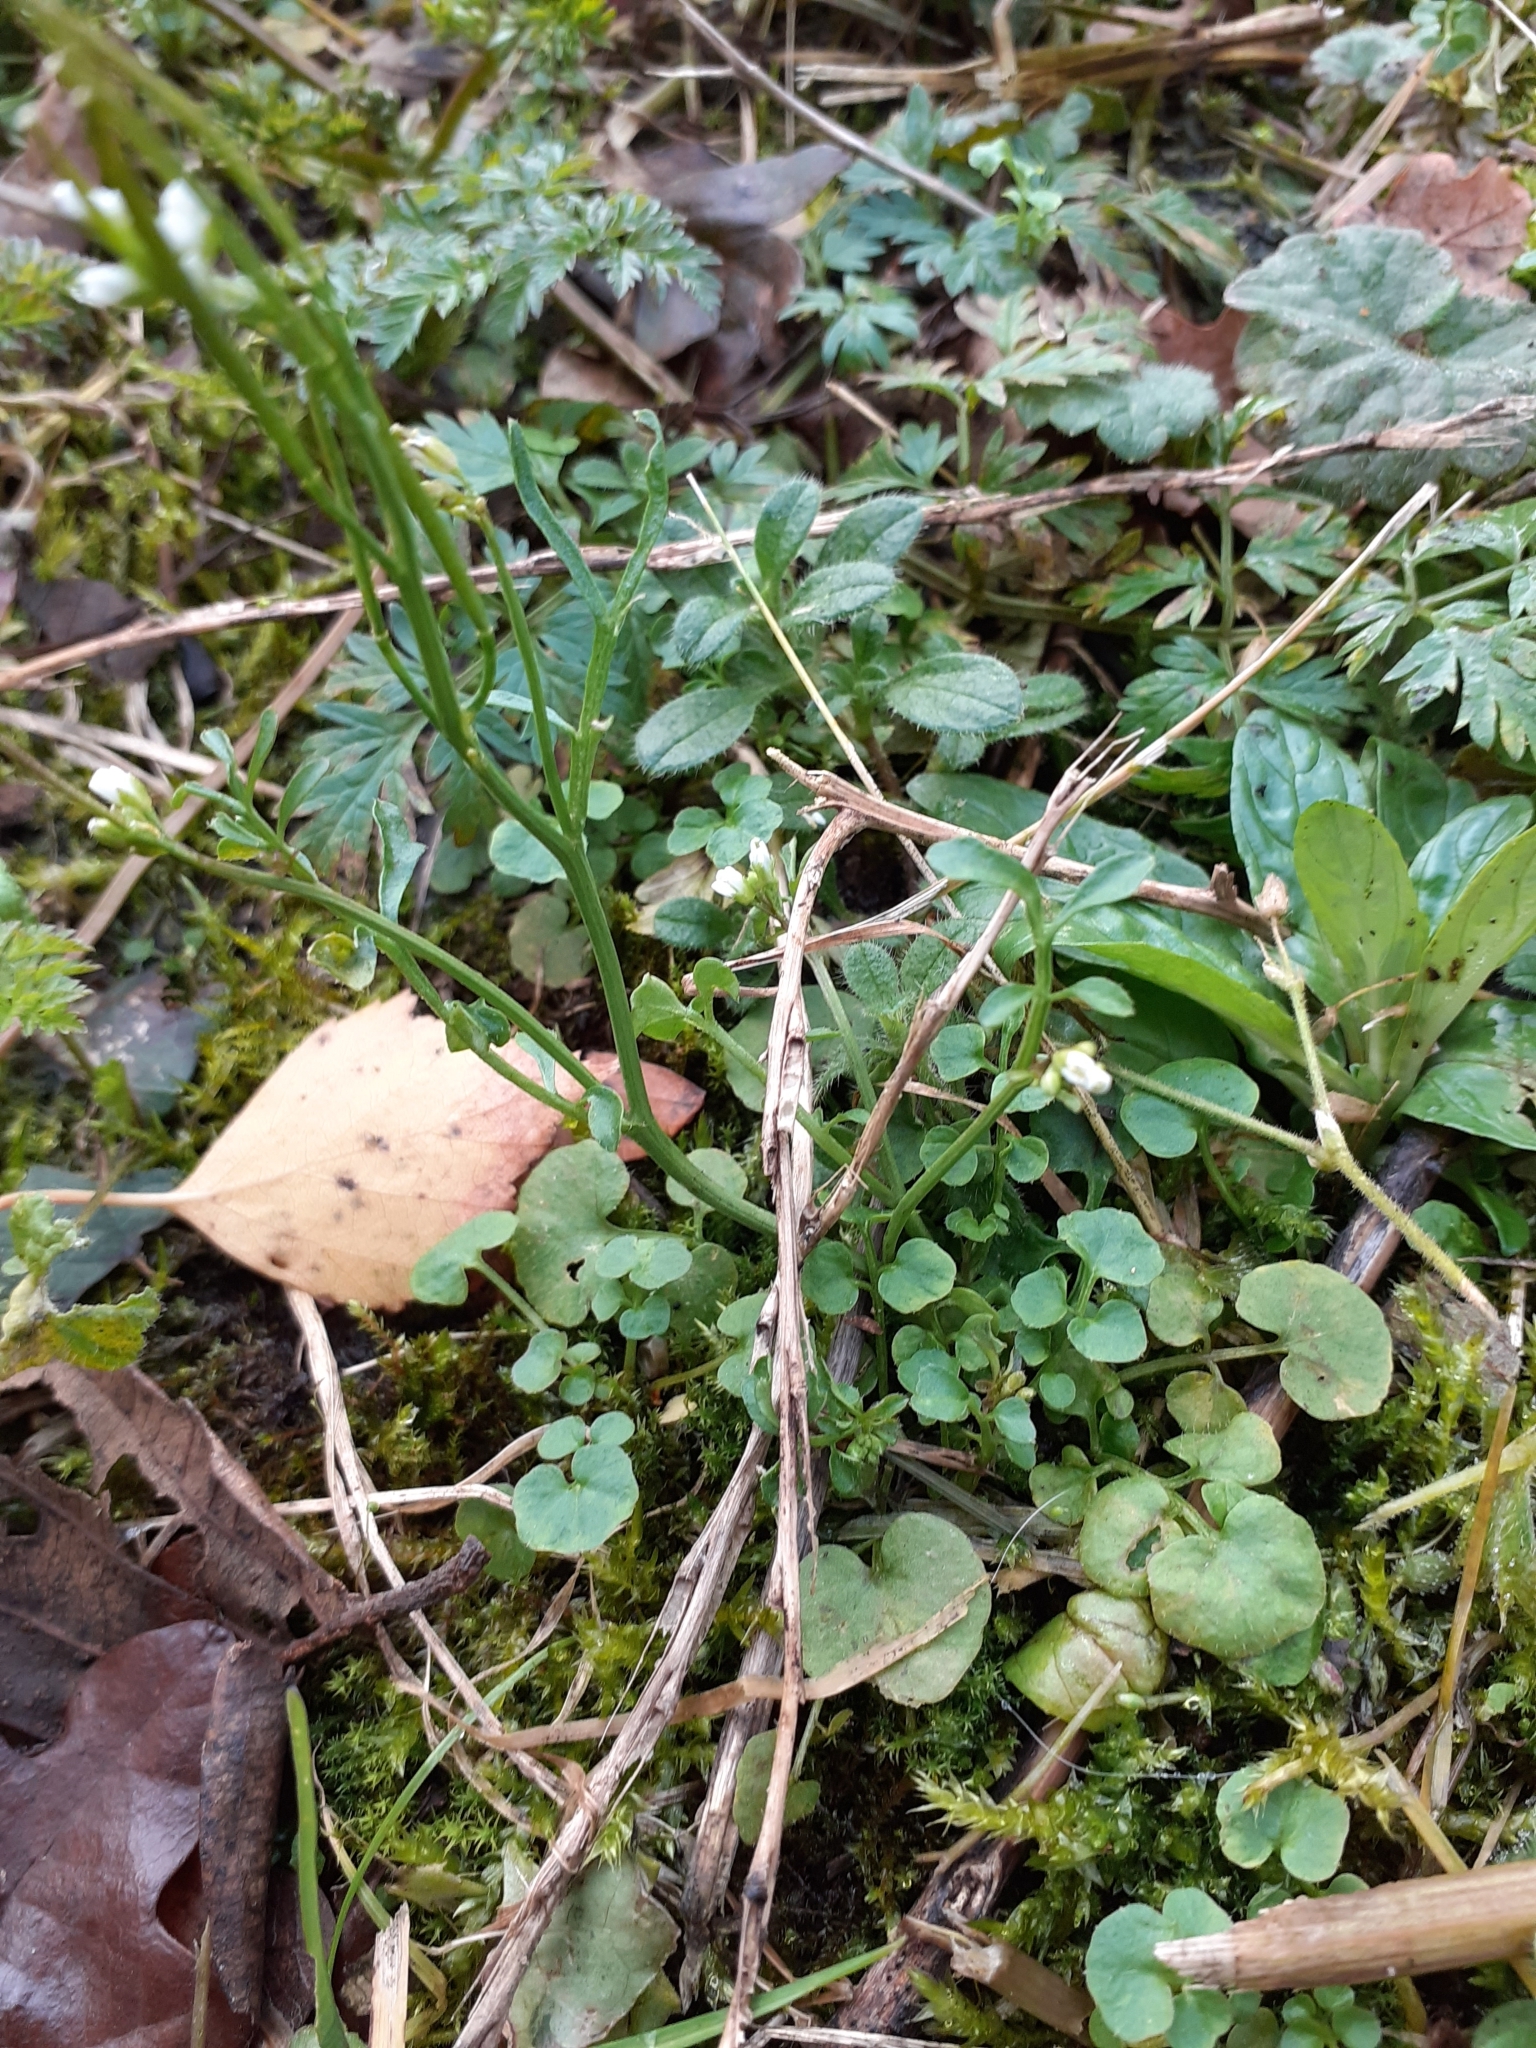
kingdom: Plantae
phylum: Tracheophyta
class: Magnoliopsida
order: Brassicales
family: Brassicaceae
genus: Cardamine
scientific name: Cardamine flexuosa
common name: Woodland bittercress
